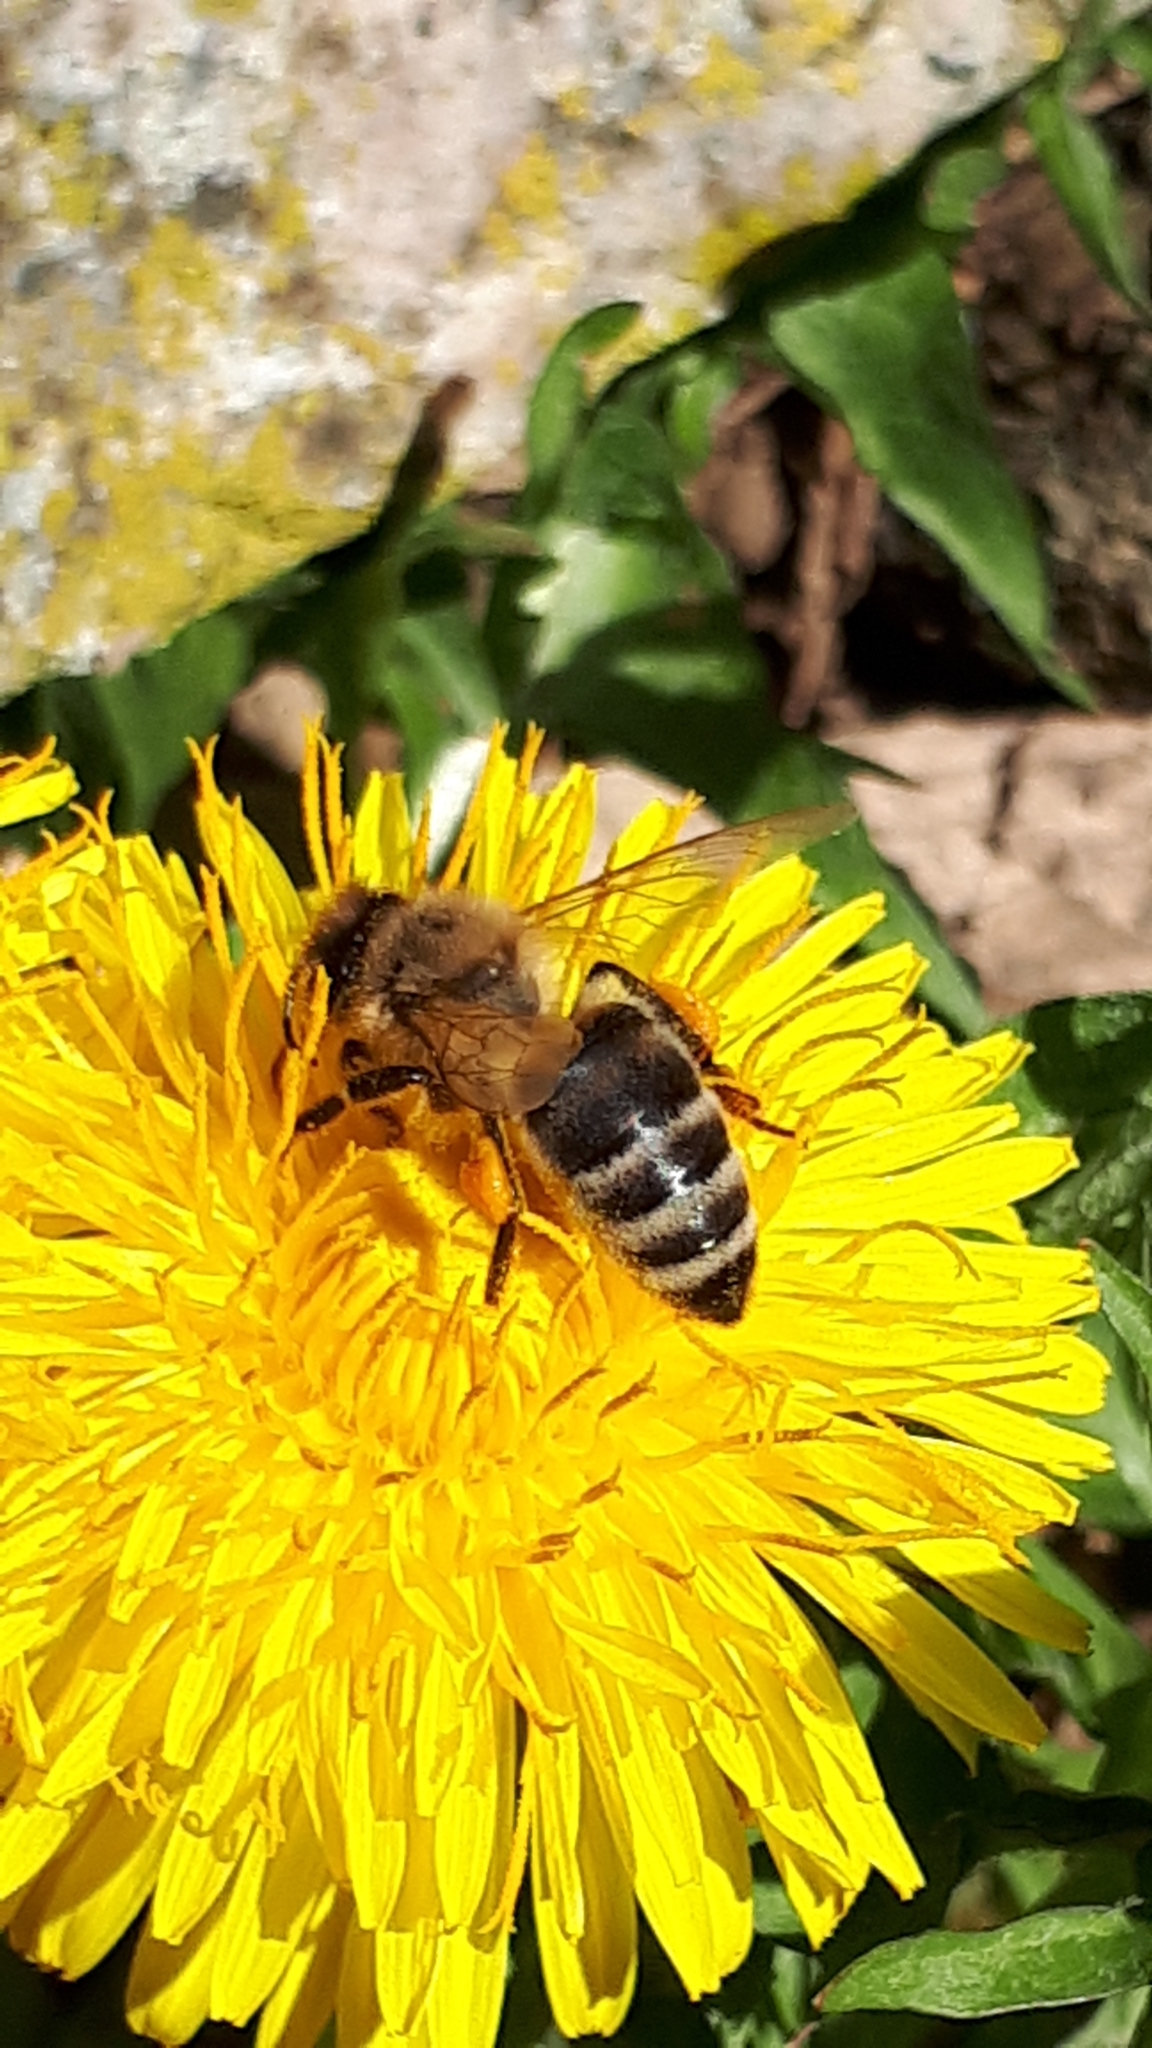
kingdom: Animalia
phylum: Arthropoda
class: Insecta
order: Hymenoptera
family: Apidae
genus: Apis
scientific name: Apis mellifera
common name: Honey bee
